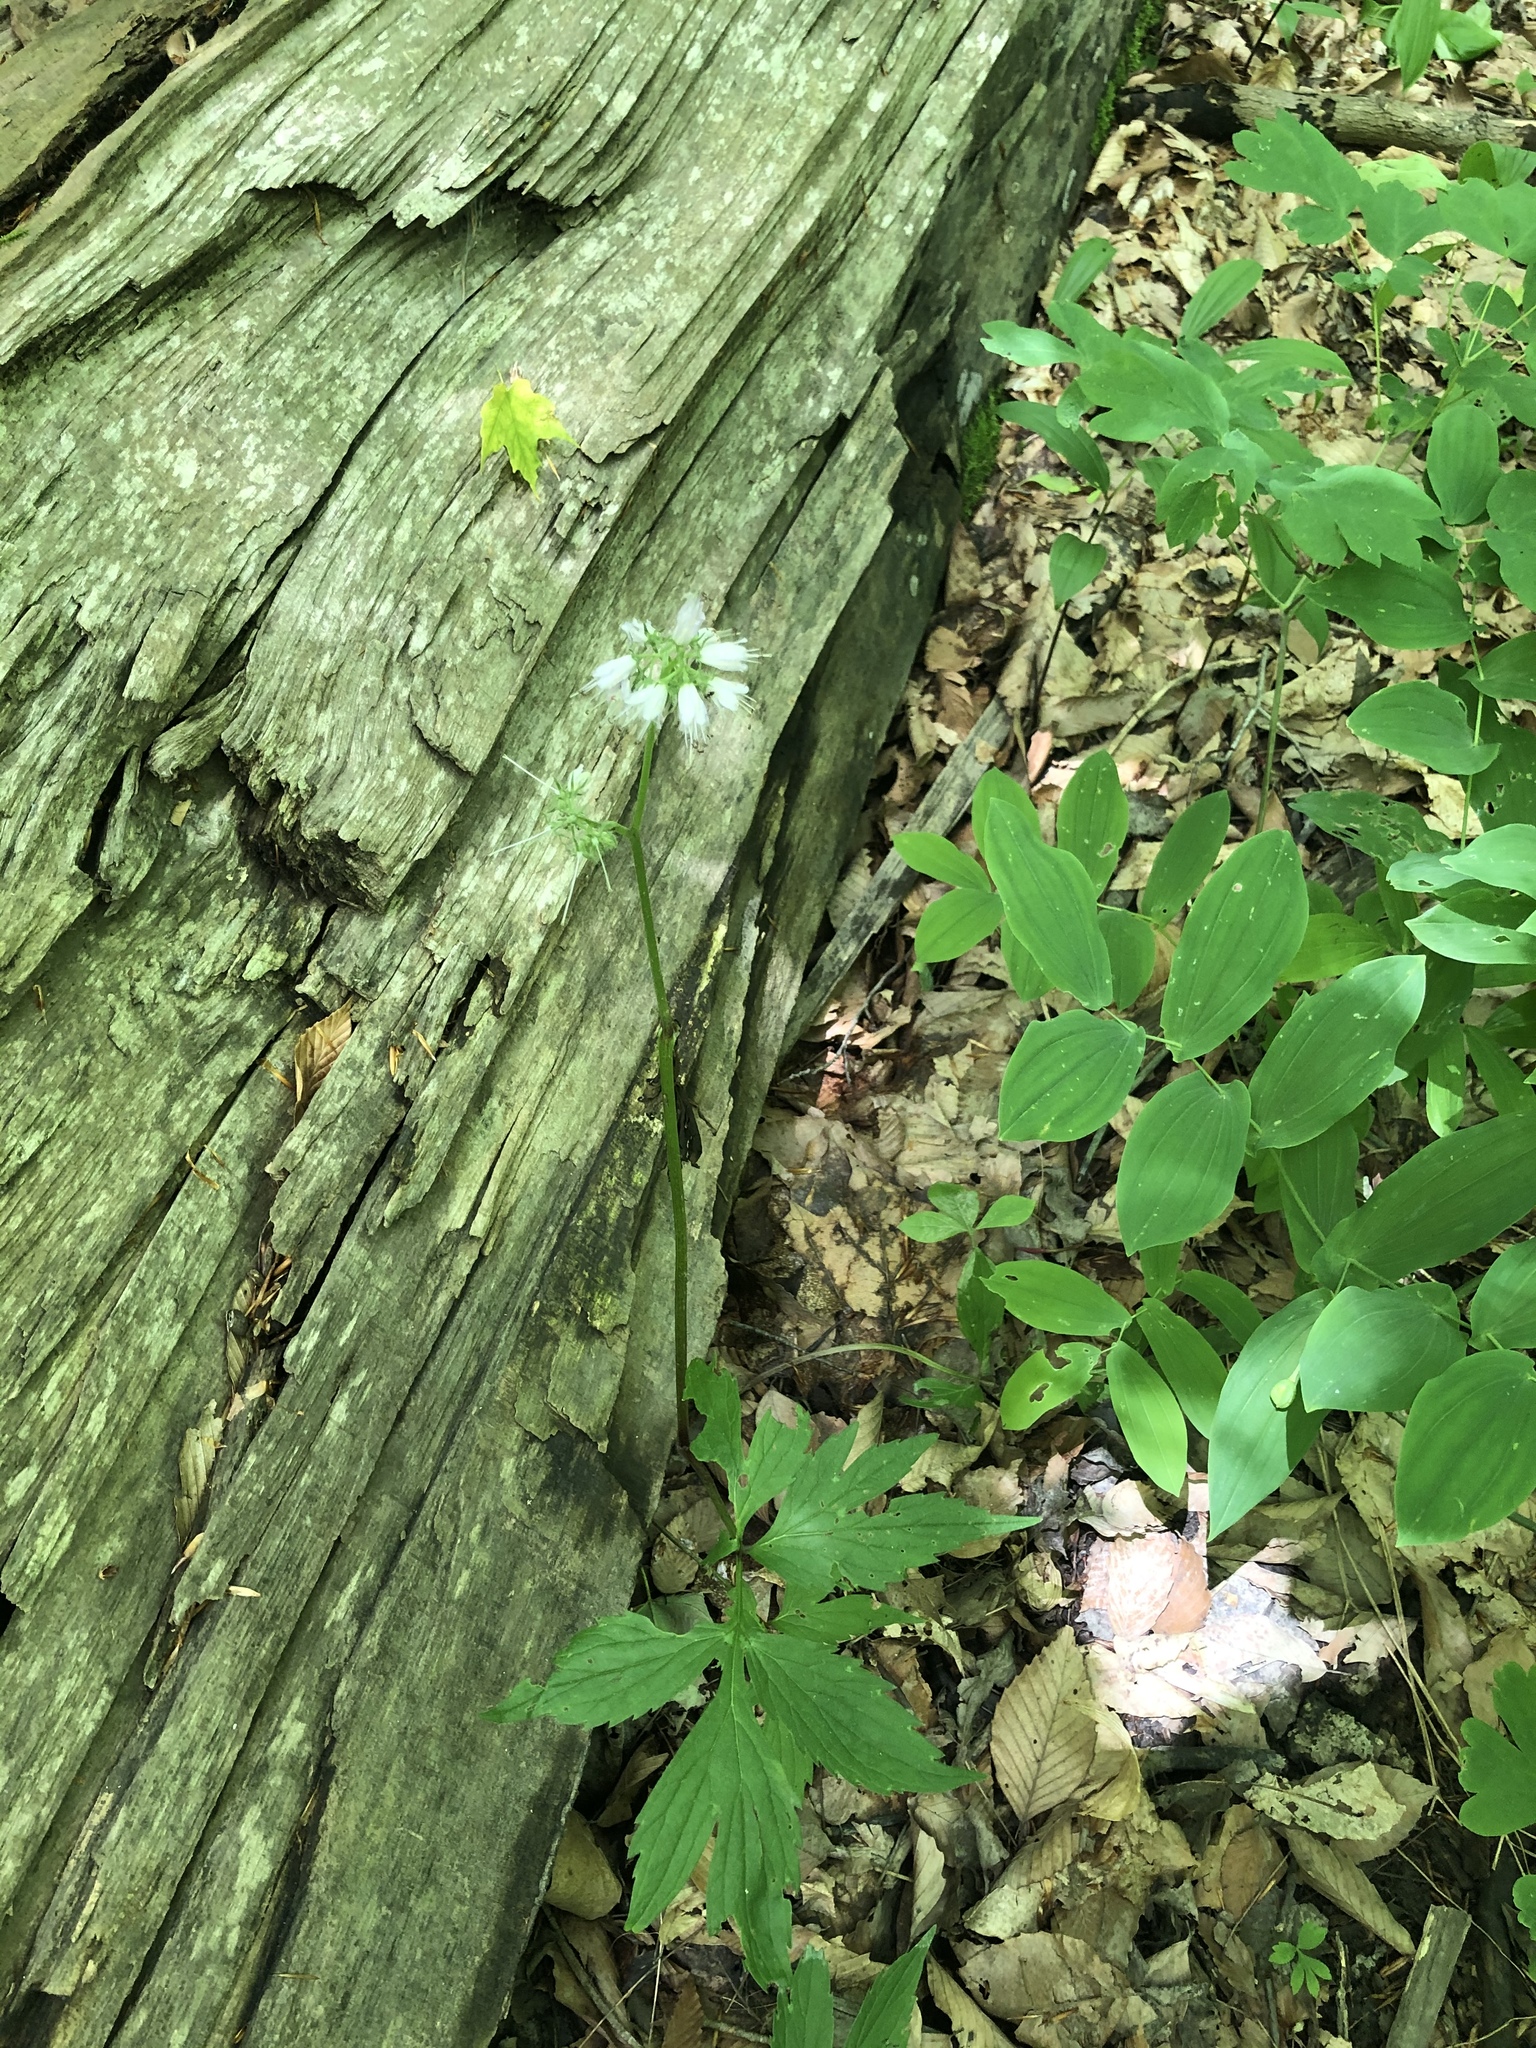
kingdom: Plantae
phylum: Tracheophyta
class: Magnoliopsida
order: Boraginales
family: Hydrophyllaceae
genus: Hydrophyllum
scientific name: Hydrophyllum virginianum
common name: Virginia waterleaf
